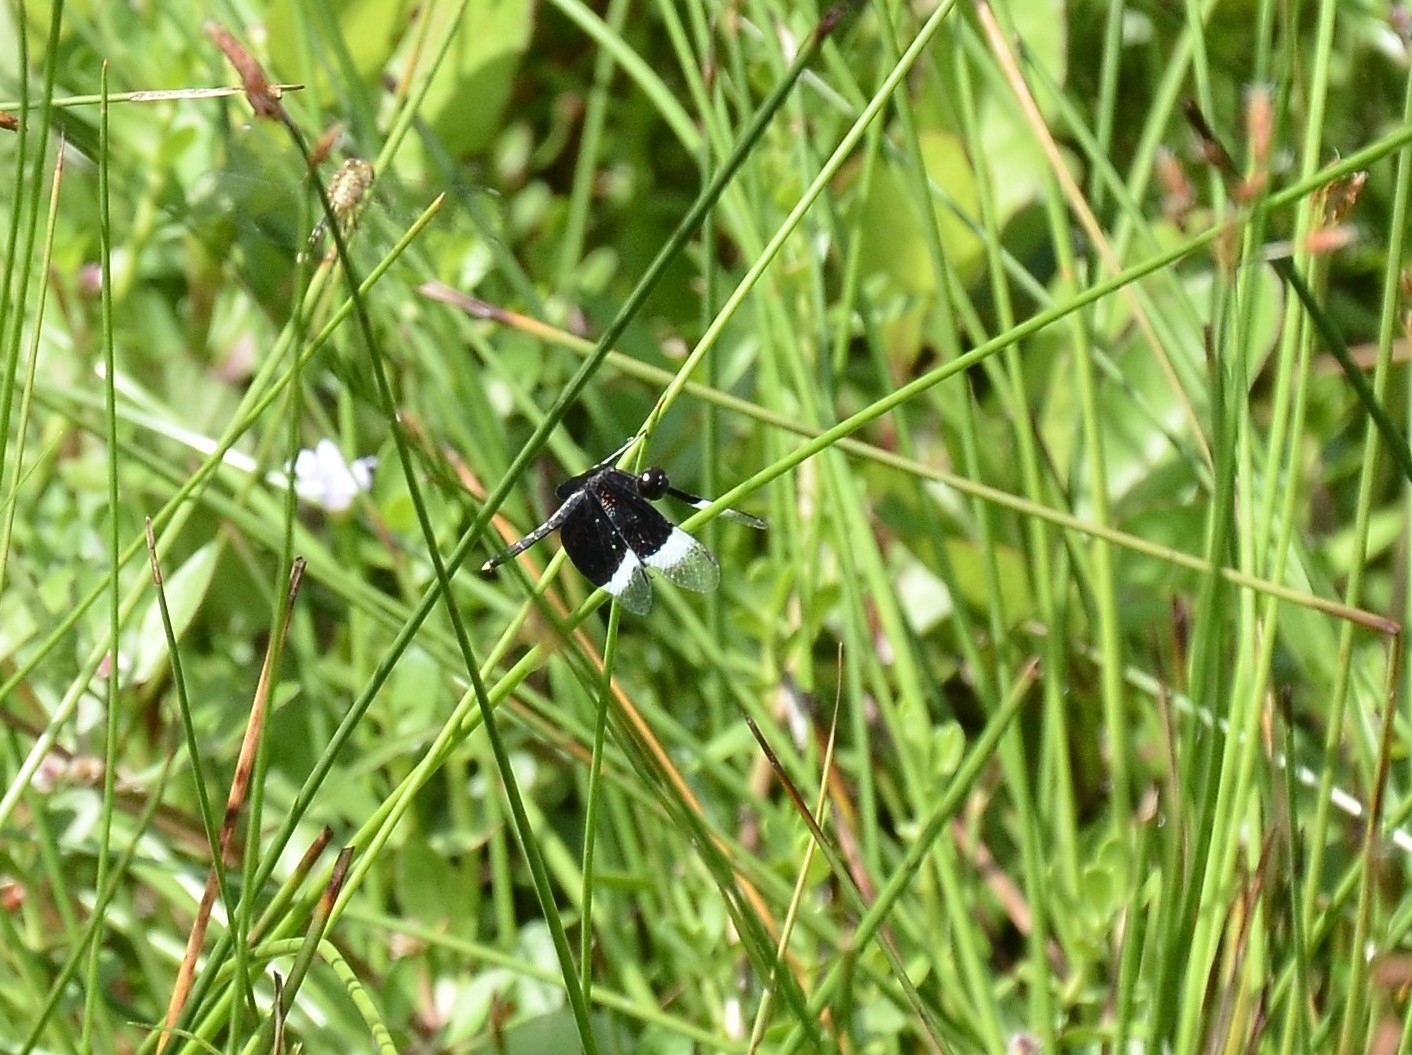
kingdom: Animalia
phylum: Arthropoda
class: Insecta
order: Odonata
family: Libellulidae
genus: Neurothemis
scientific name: Neurothemis tullia
